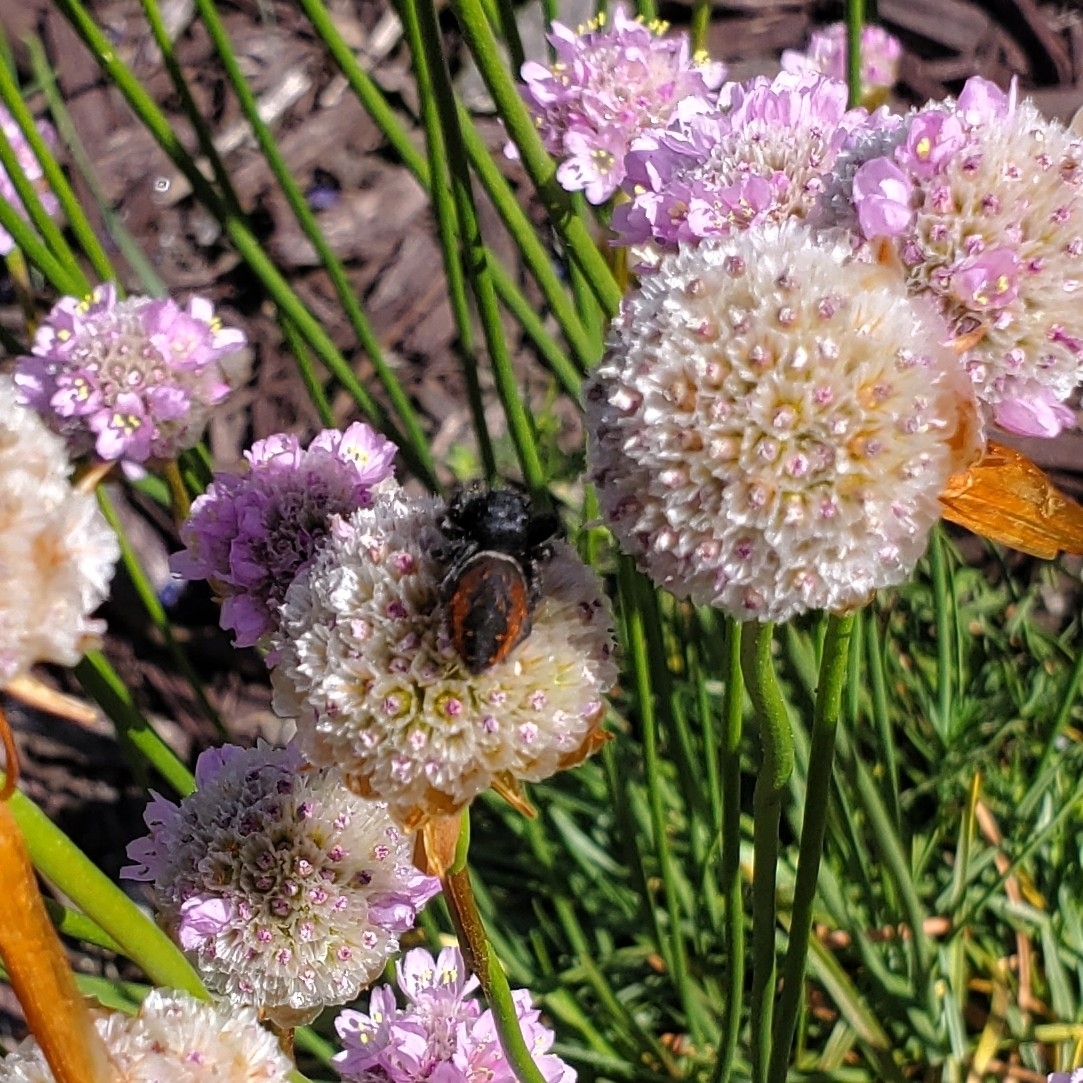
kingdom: Animalia
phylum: Arthropoda
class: Arachnida
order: Araneae
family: Salticidae
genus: Phidippus
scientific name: Phidippus johnsoni
